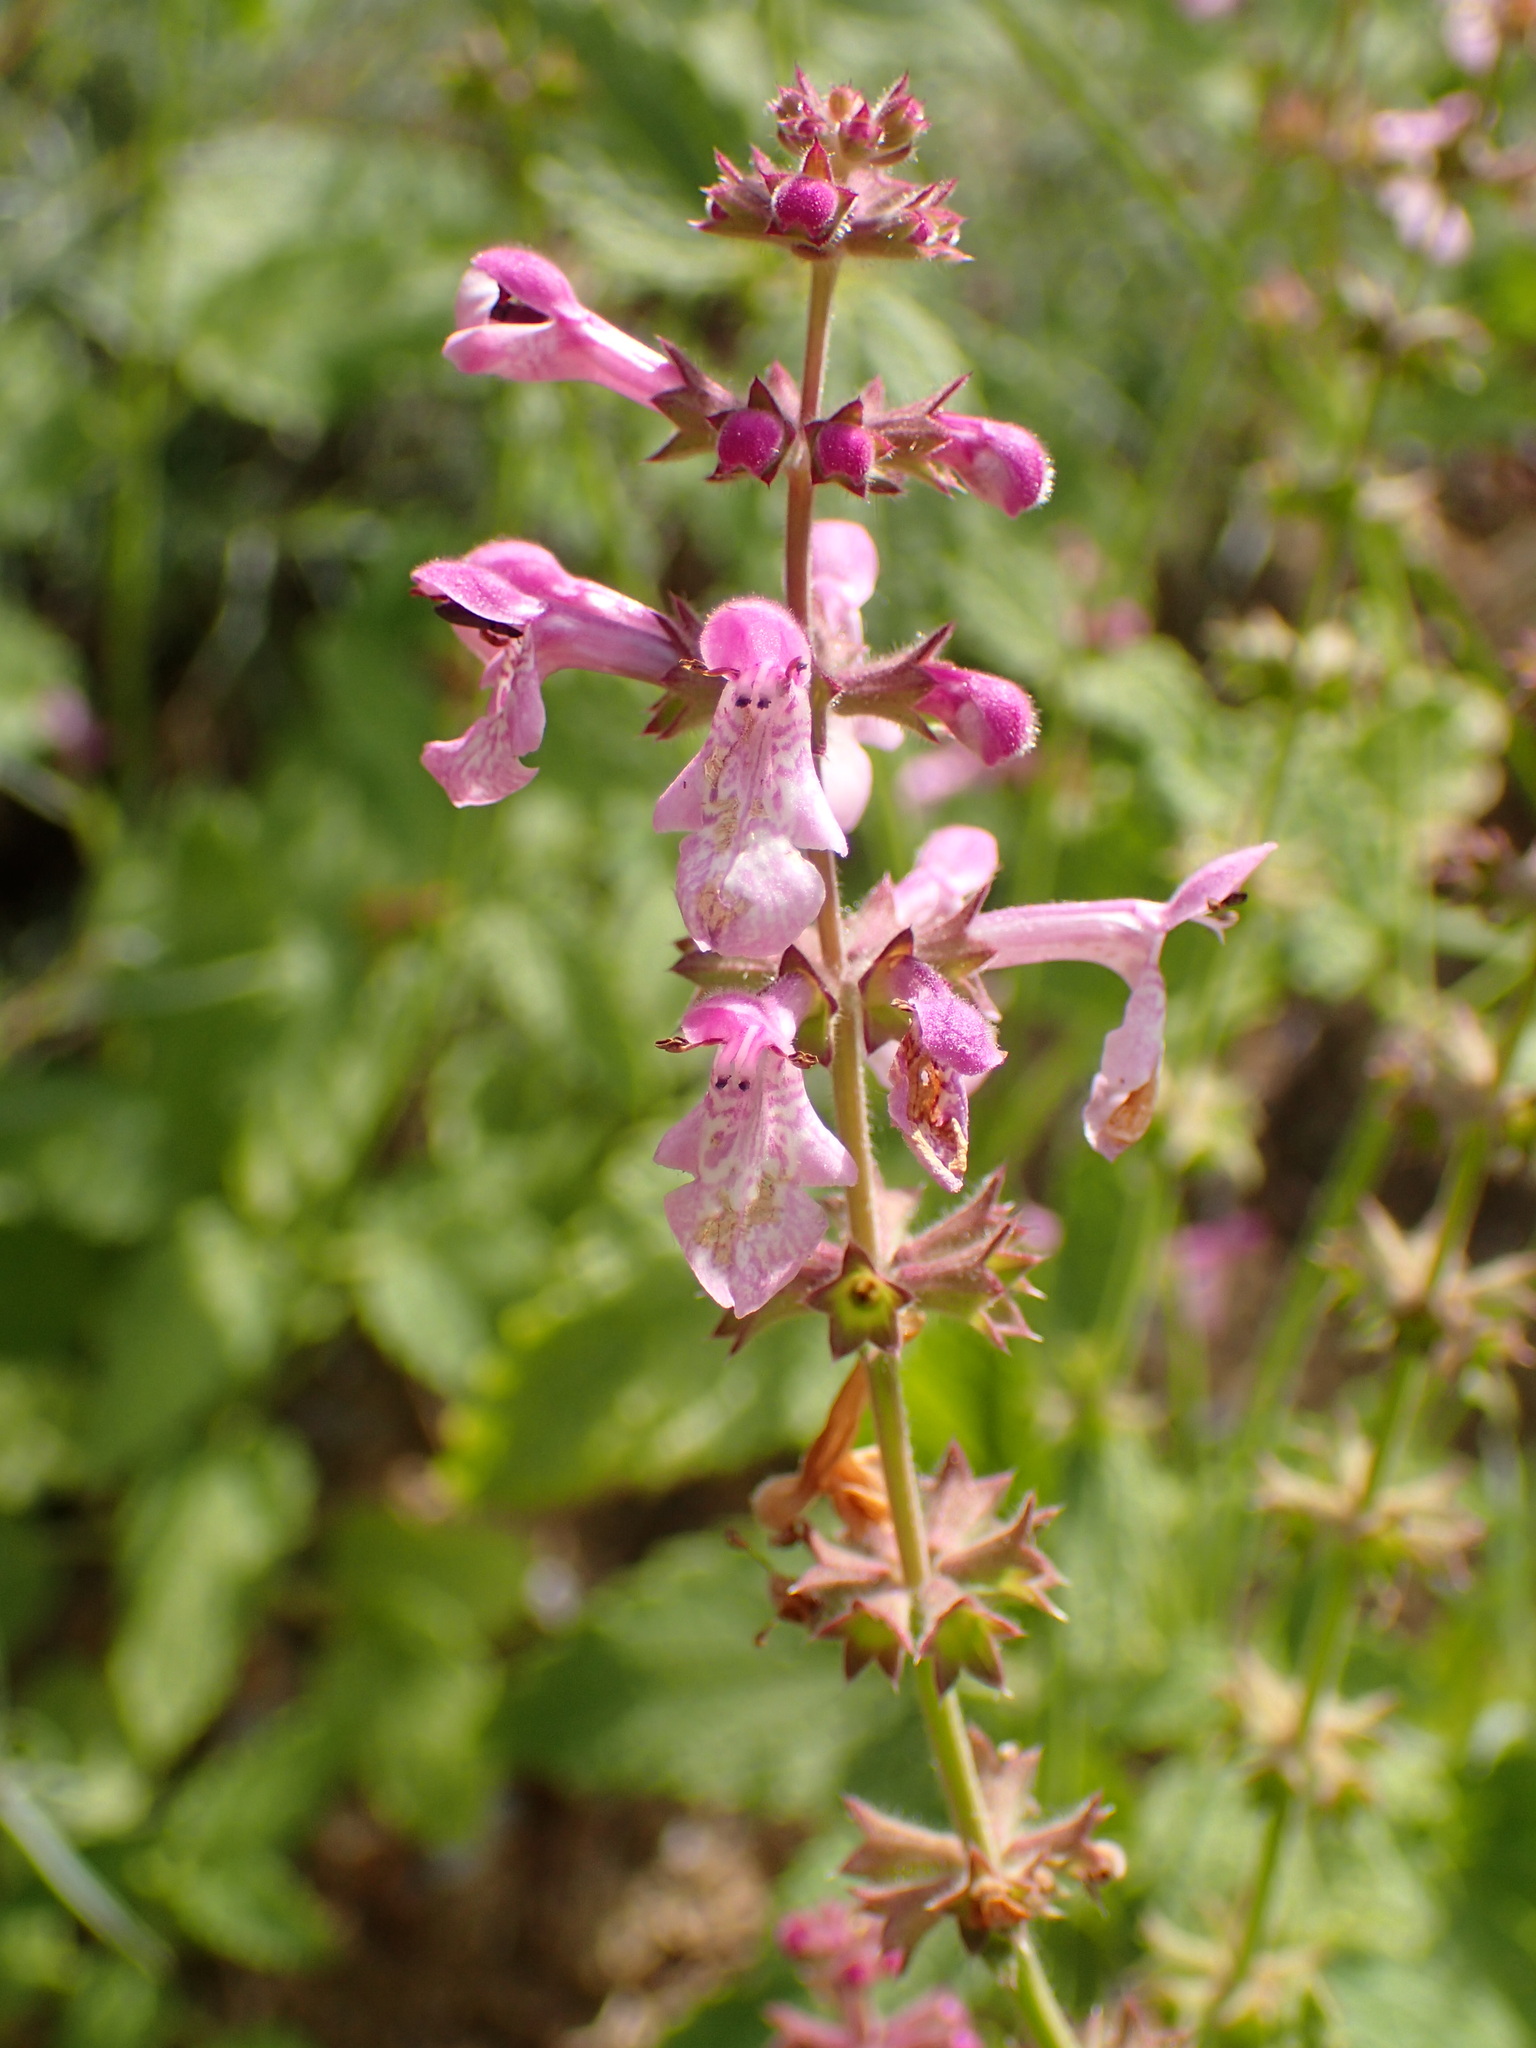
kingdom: Plantae
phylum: Tracheophyta
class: Magnoliopsida
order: Lamiales
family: Lamiaceae
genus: Stachys
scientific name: Stachys bullata
